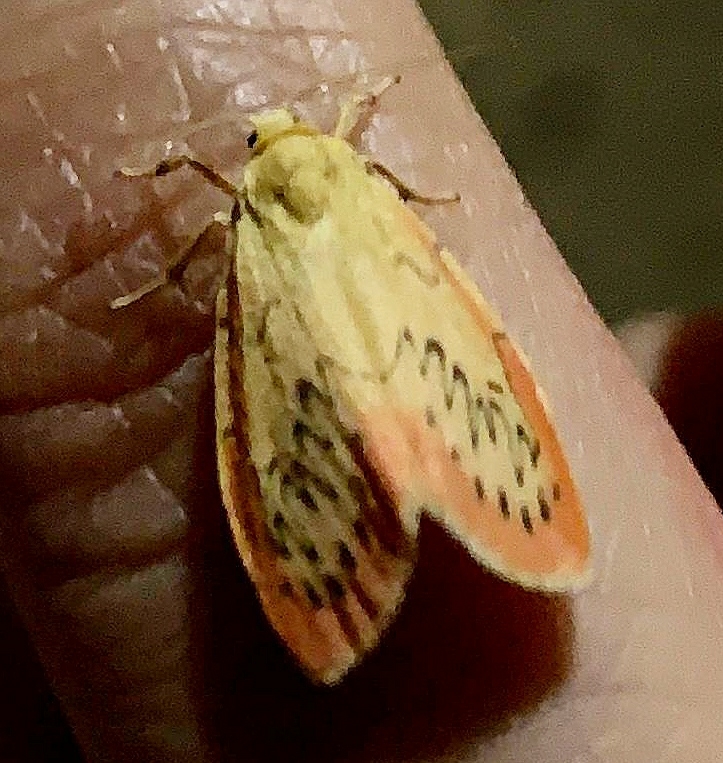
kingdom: Animalia
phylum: Arthropoda
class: Insecta
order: Lepidoptera
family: Erebidae
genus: Miltochrista
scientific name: Miltochrista miniata
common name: Rosy footman
